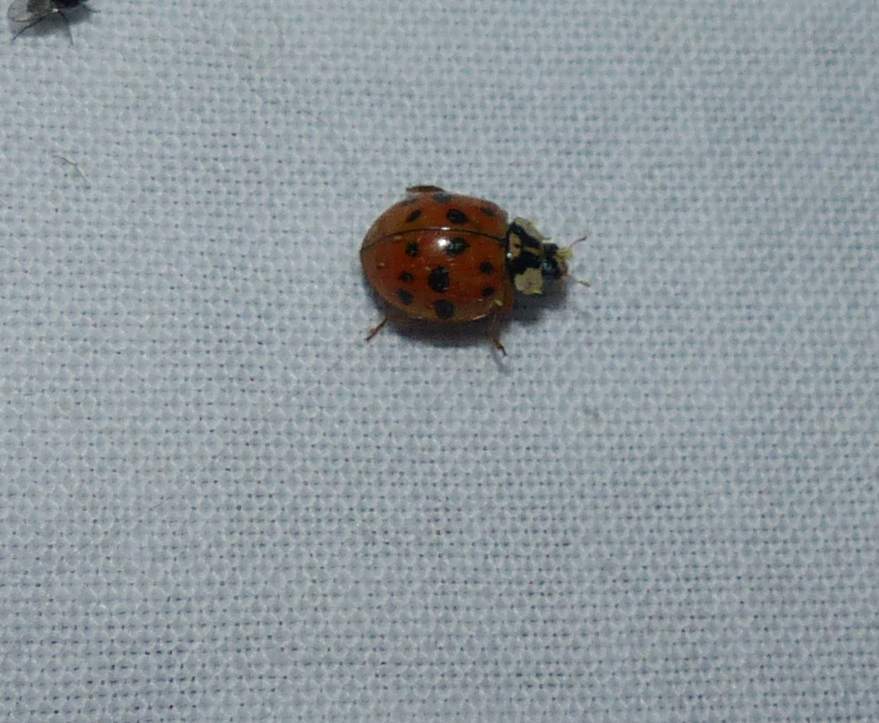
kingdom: Animalia
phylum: Arthropoda
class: Insecta
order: Coleoptera
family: Coccinellidae
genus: Harmonia
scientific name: Harmonia axyridis
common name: Harlequin ladybird
